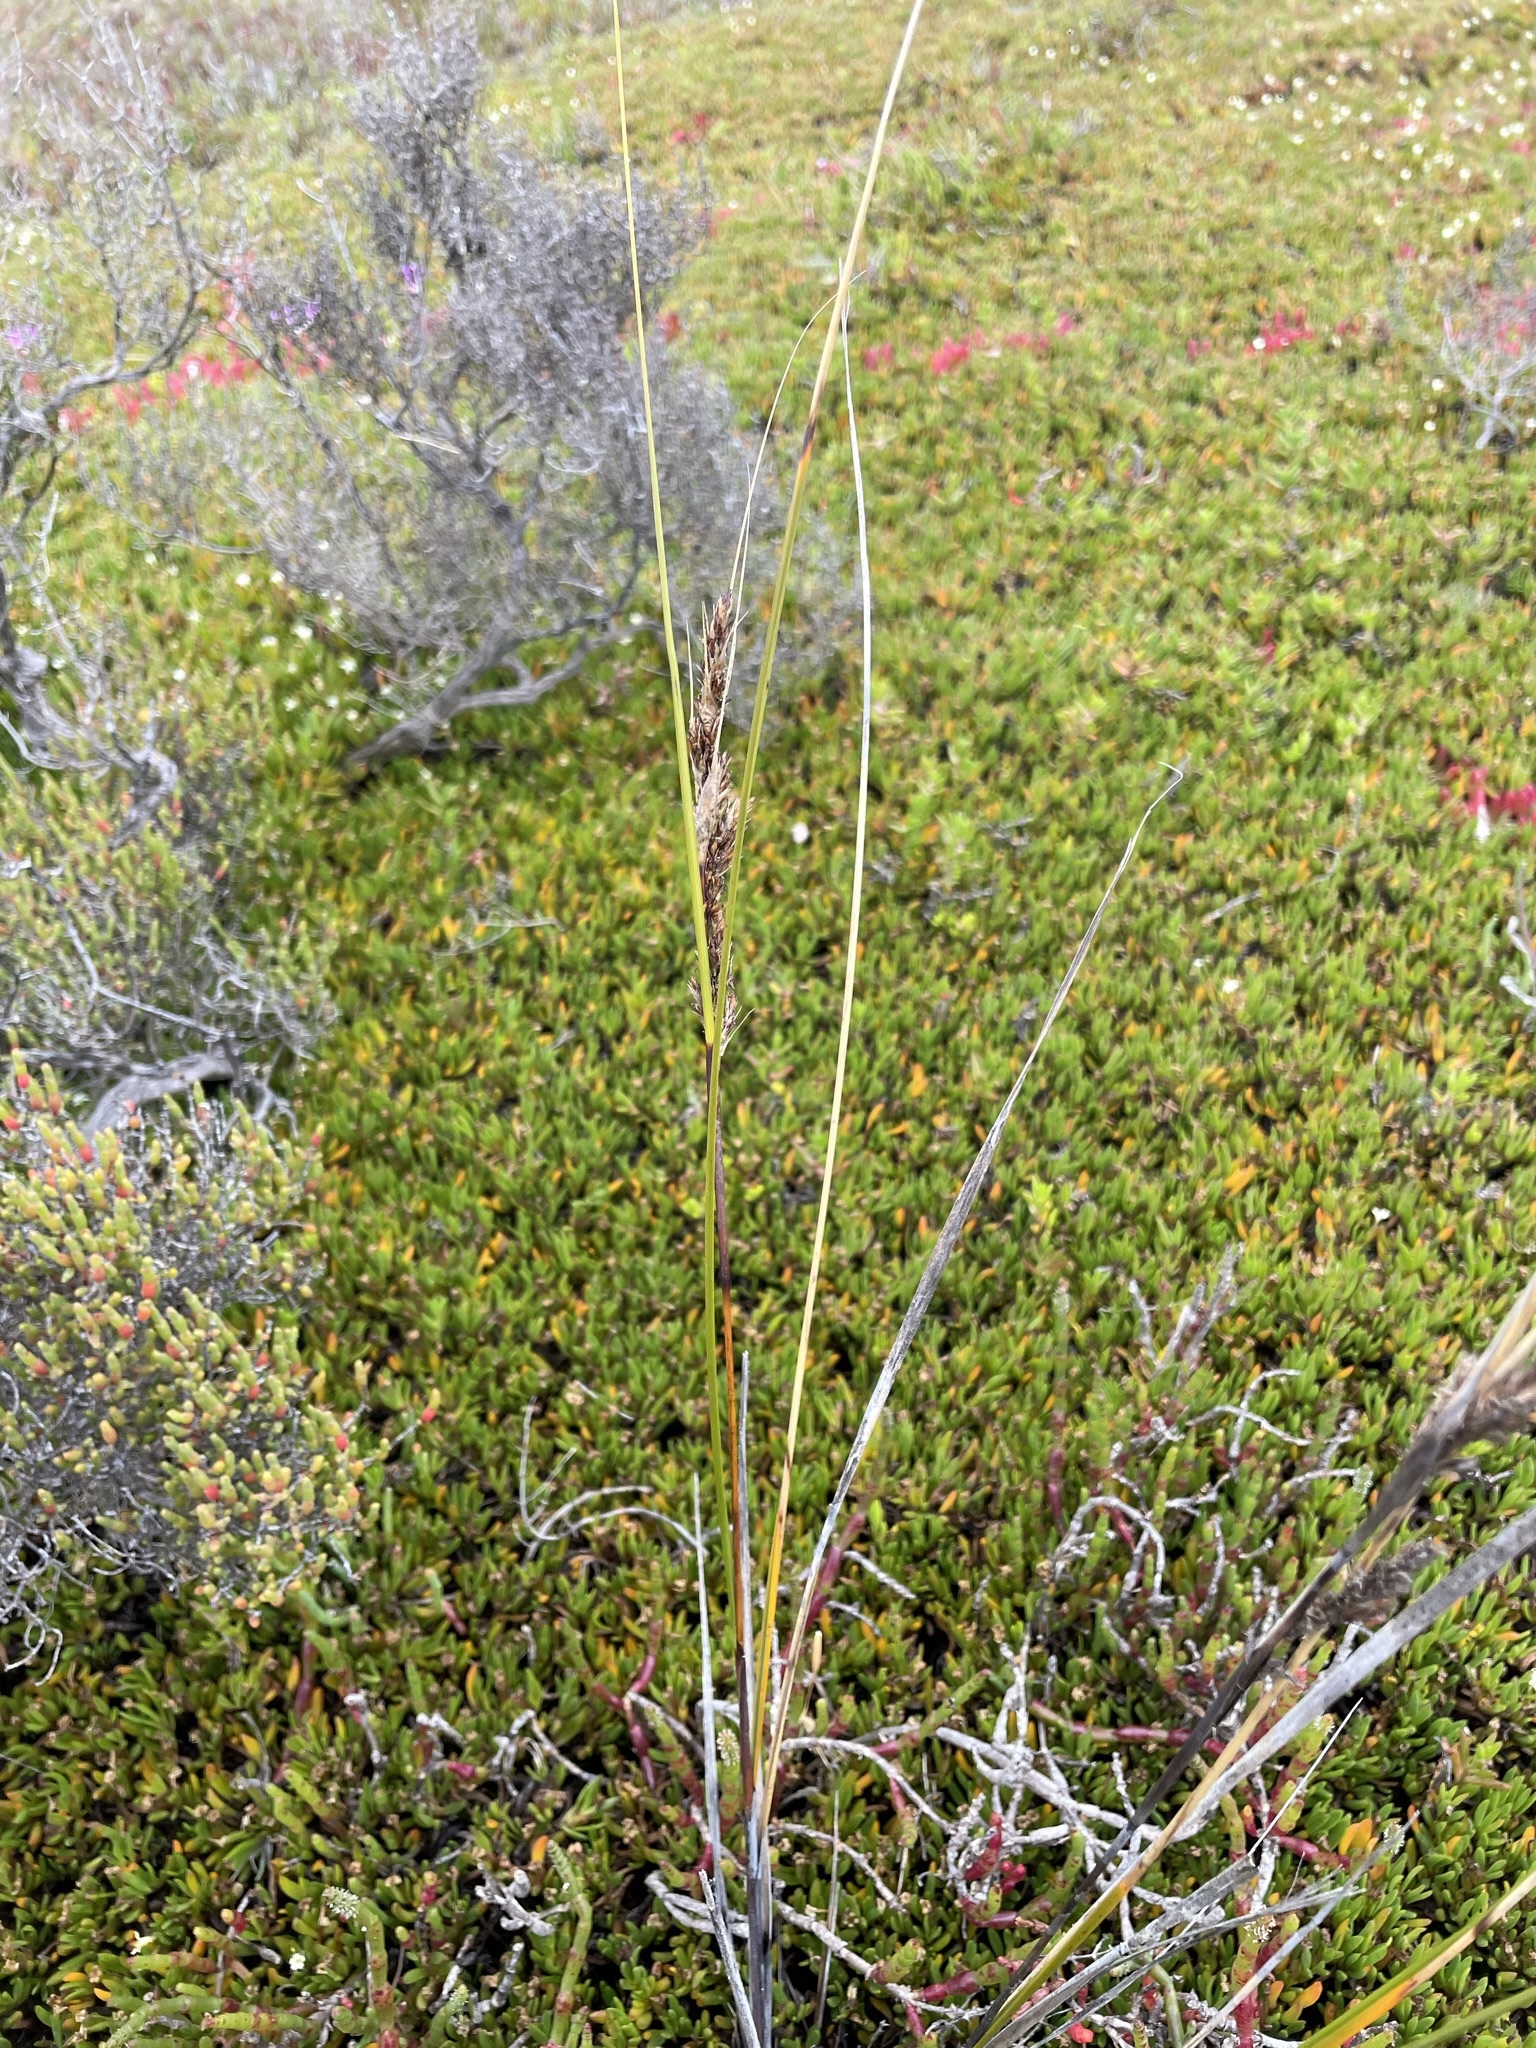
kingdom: Plantae
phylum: Tracheophyta
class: Liliopsida
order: Poales
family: Cyperaceae
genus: Gahnia
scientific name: Gahnia filum
